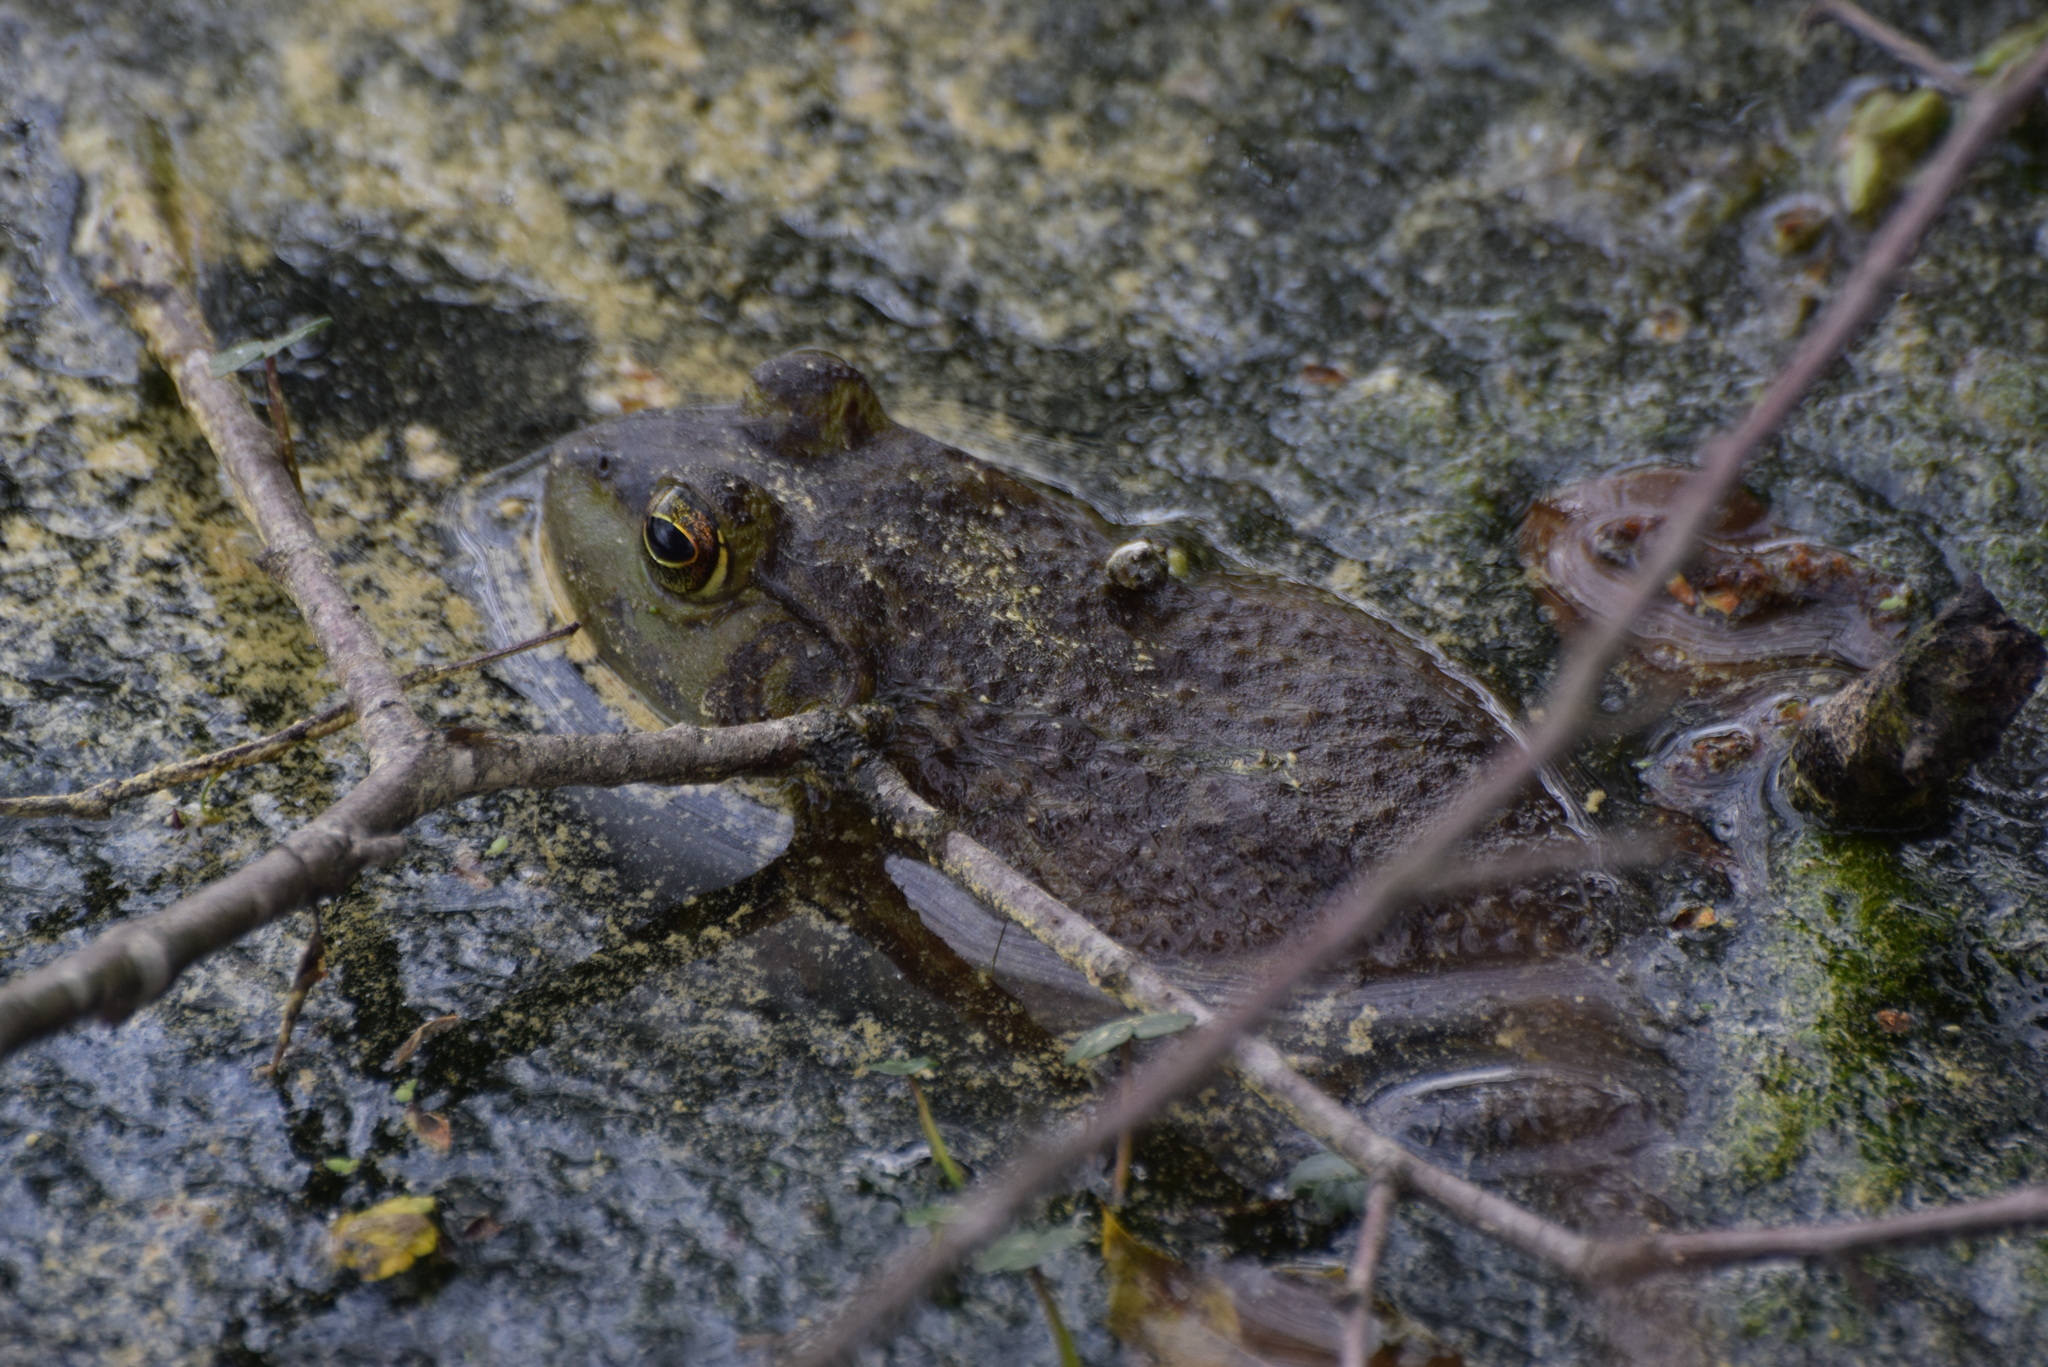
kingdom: Animalia
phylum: Chordata
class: Amphibia
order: Anura
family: Ranidae
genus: Lithobates
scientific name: Lithobates catesbeianus
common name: American bullfrog
